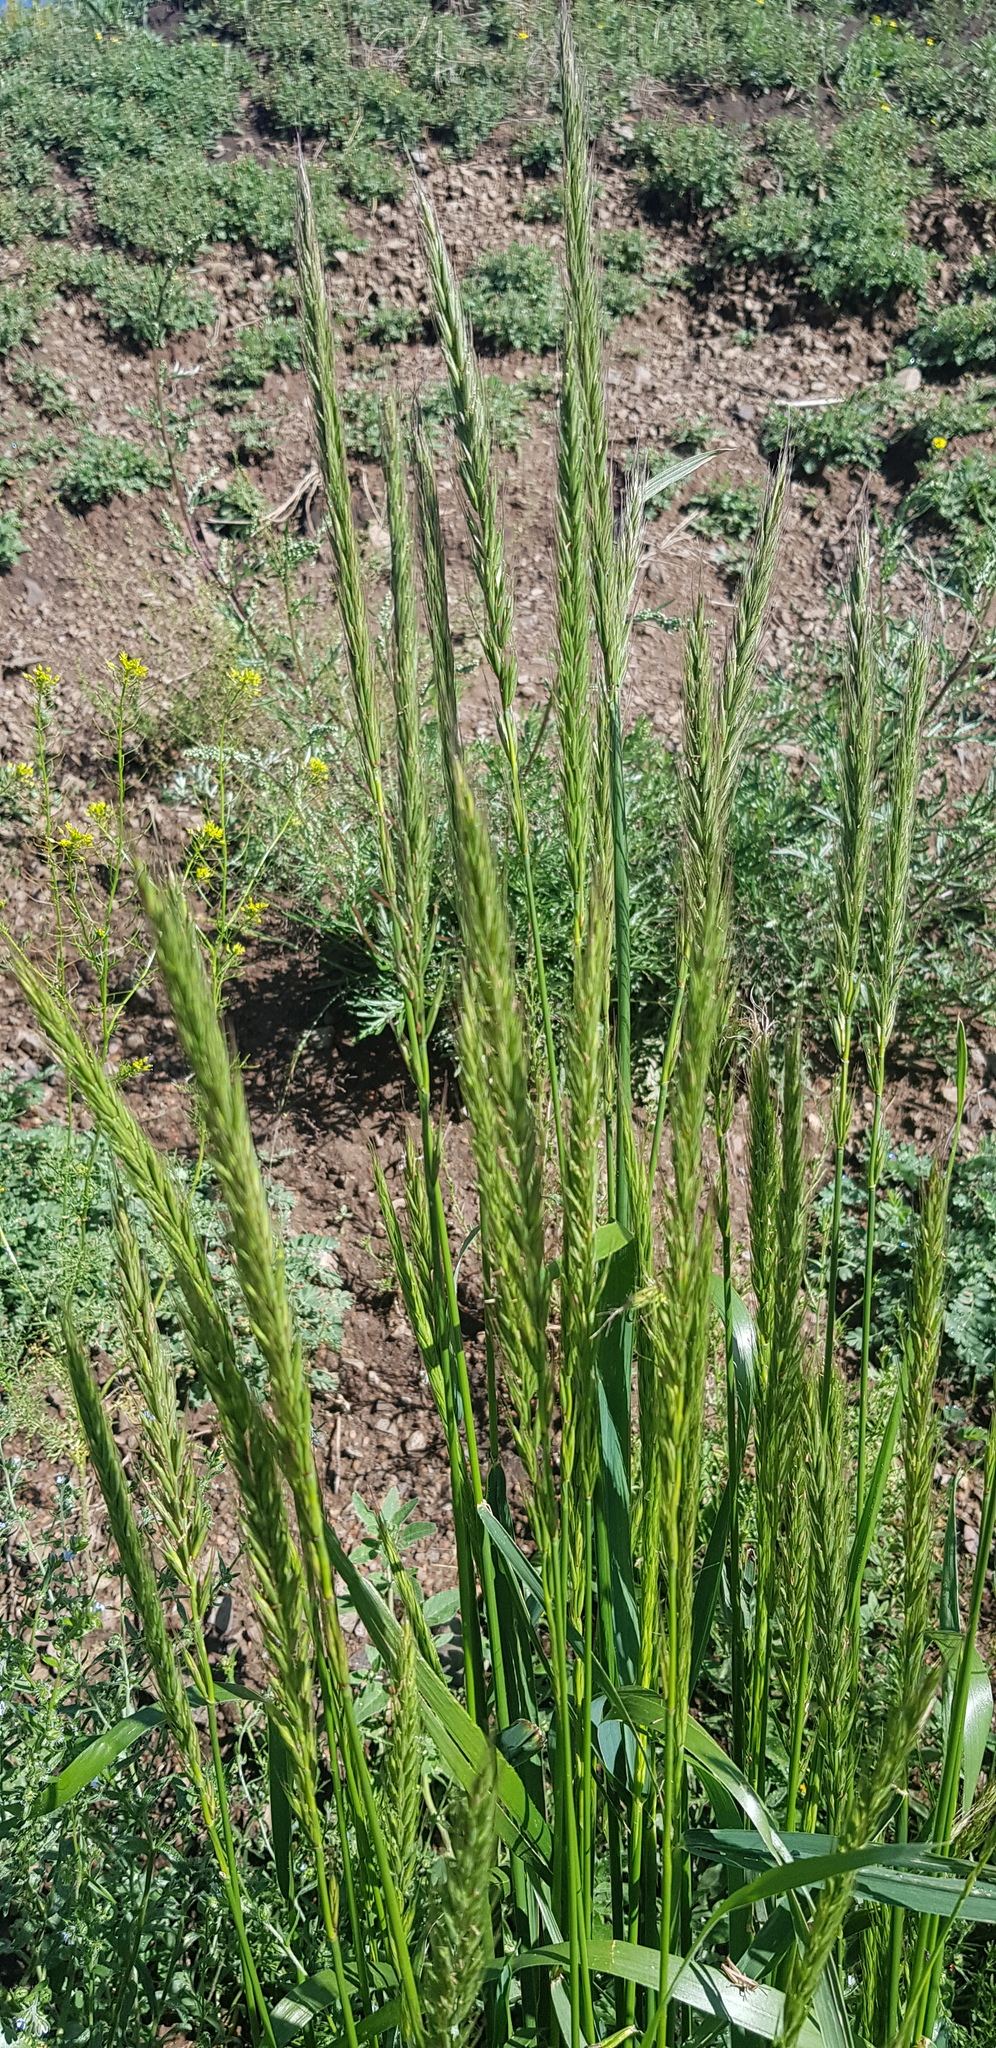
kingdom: Plantae
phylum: Tracheophyta
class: Liliopsida
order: Poales
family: Poaceae
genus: Leymus
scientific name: Leymus racemosus
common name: Mammoth wildrye
